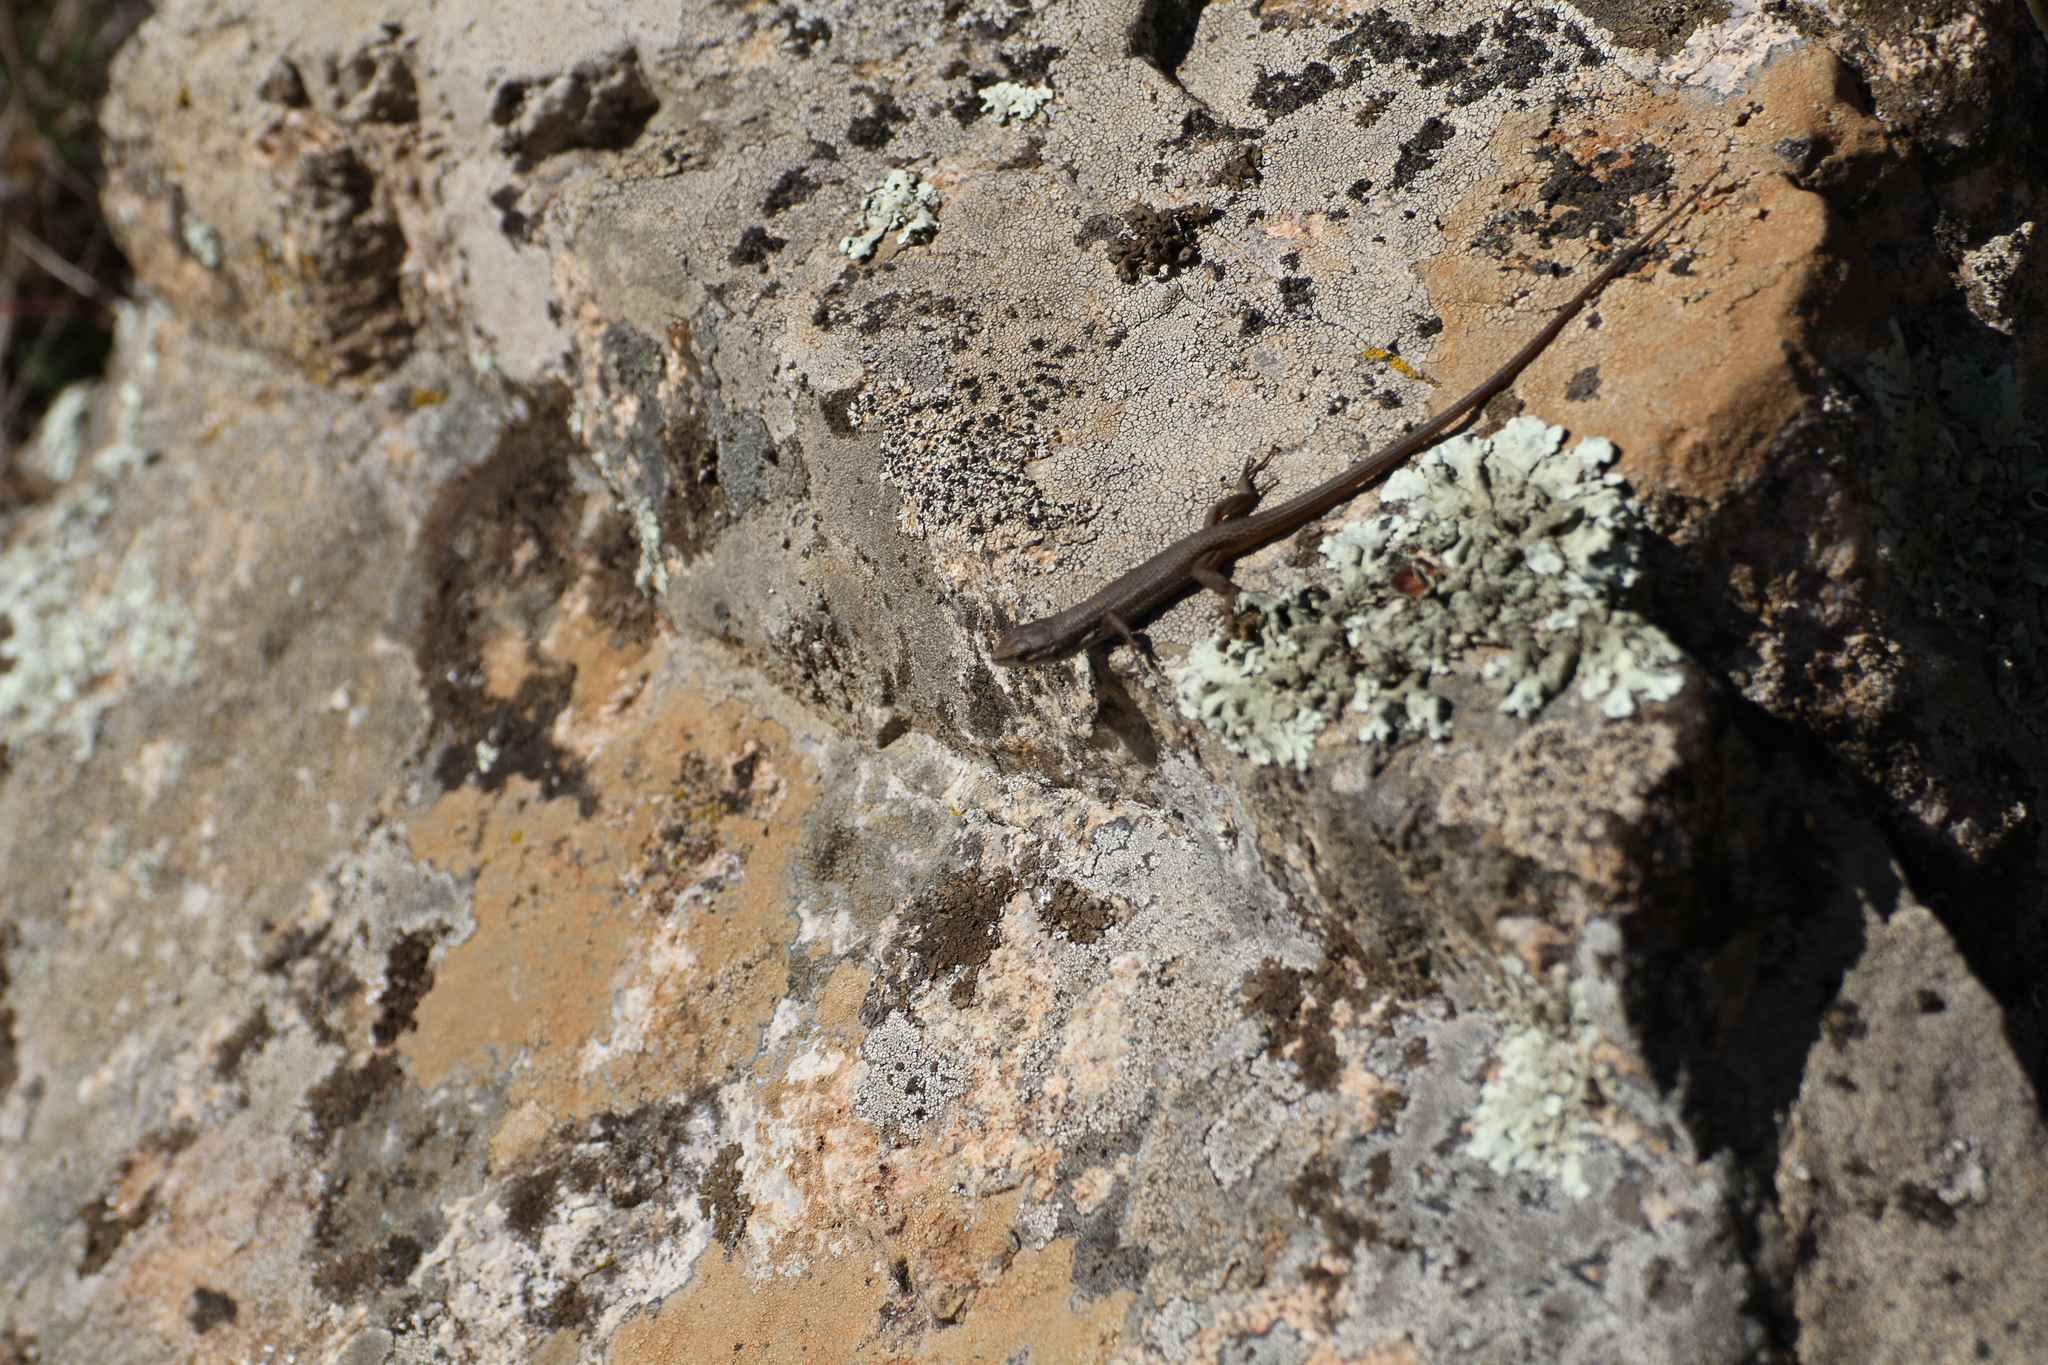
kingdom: Animalia
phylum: Chordata
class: Squamata
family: Lacertidae
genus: Psammodromus
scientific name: Psammodromus algirus
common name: Algerian psammodromus
